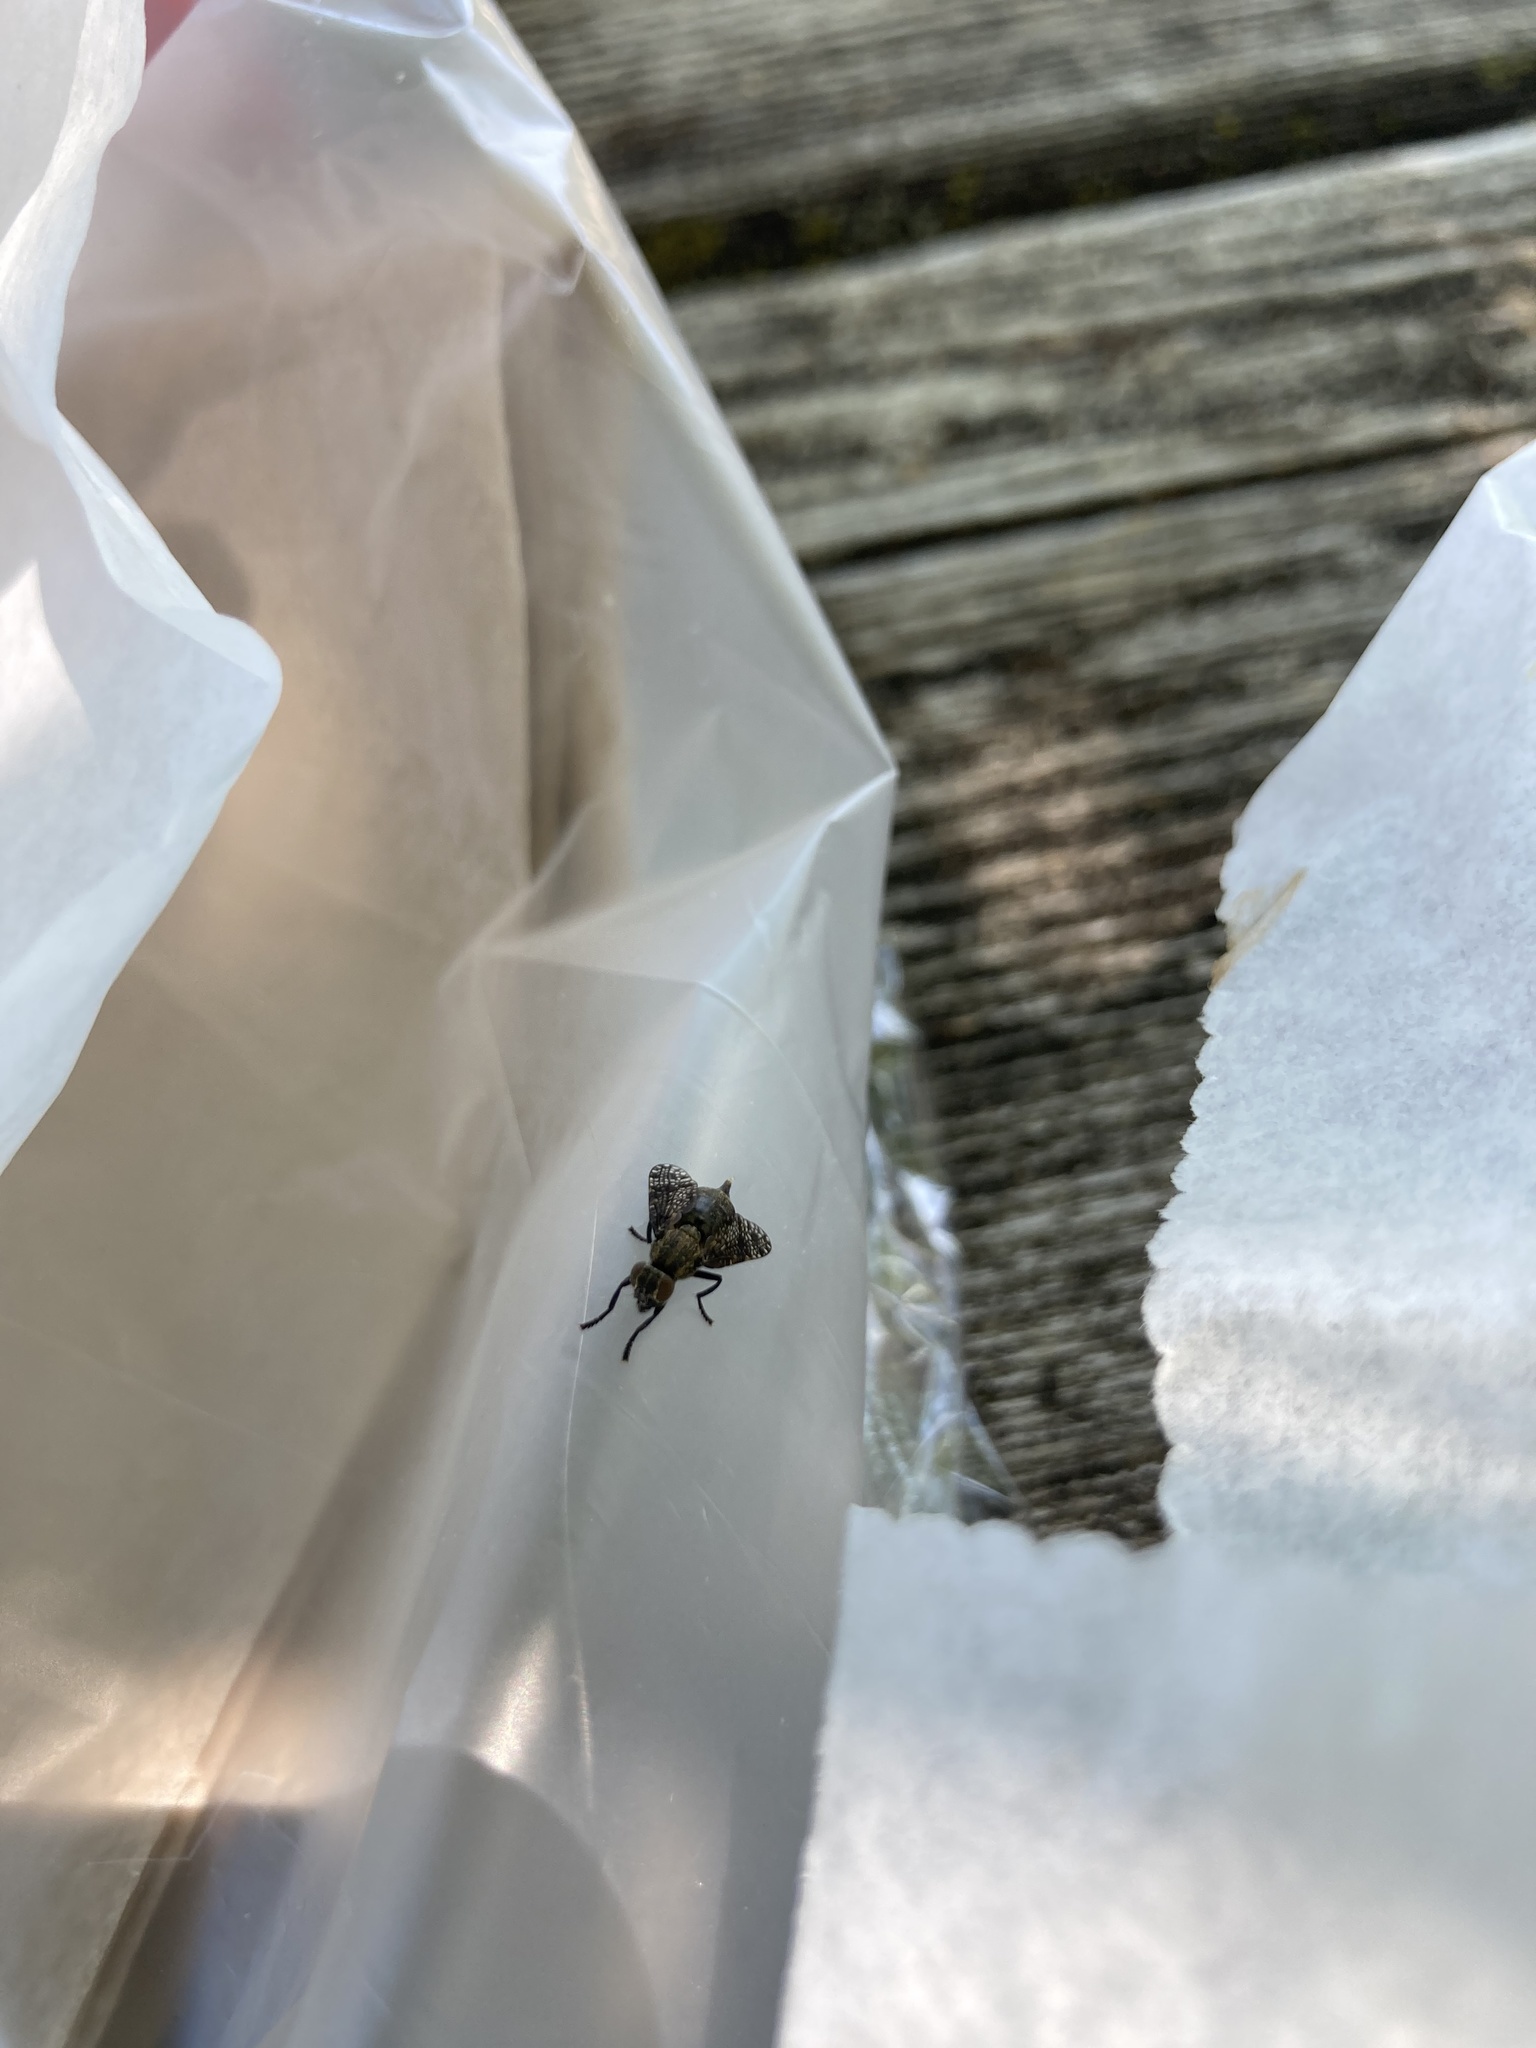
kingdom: Animalia
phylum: Arthropoda
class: Insecta
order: Diptera
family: Platystomatidae
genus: Platystoma
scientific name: Platystoma seminationis
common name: Fly
